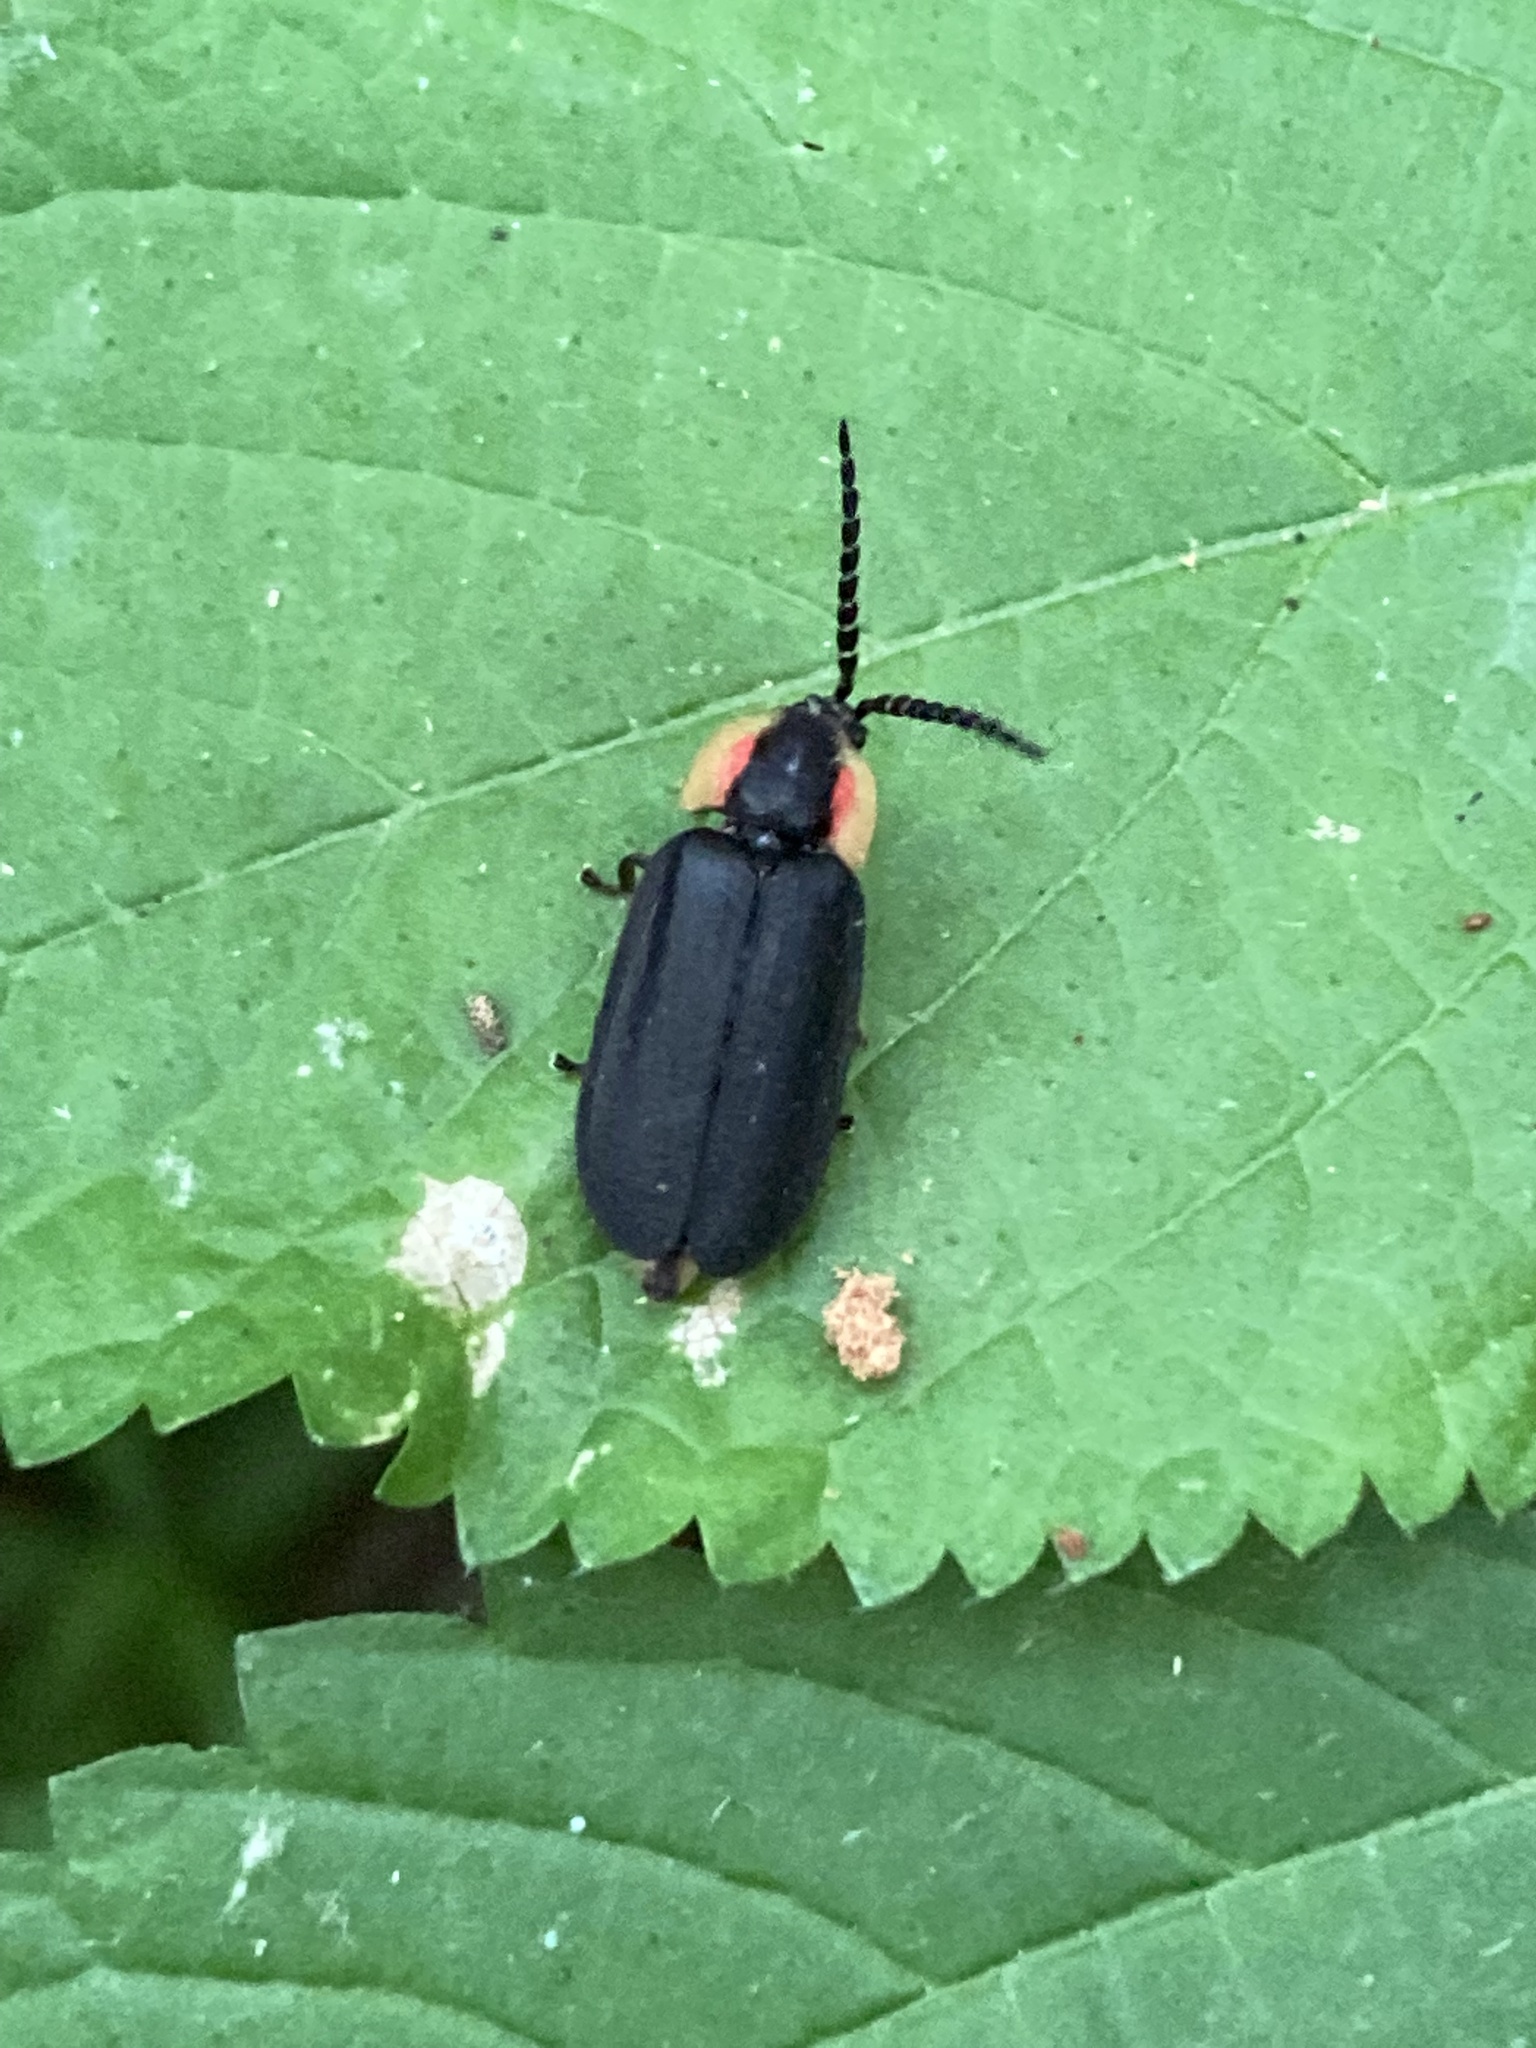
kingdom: Animalia
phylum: Arthropoda
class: Insecta
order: Coleoptera
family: Lampyridae
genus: Lucidota
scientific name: Lucidota atra
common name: Black firefly
